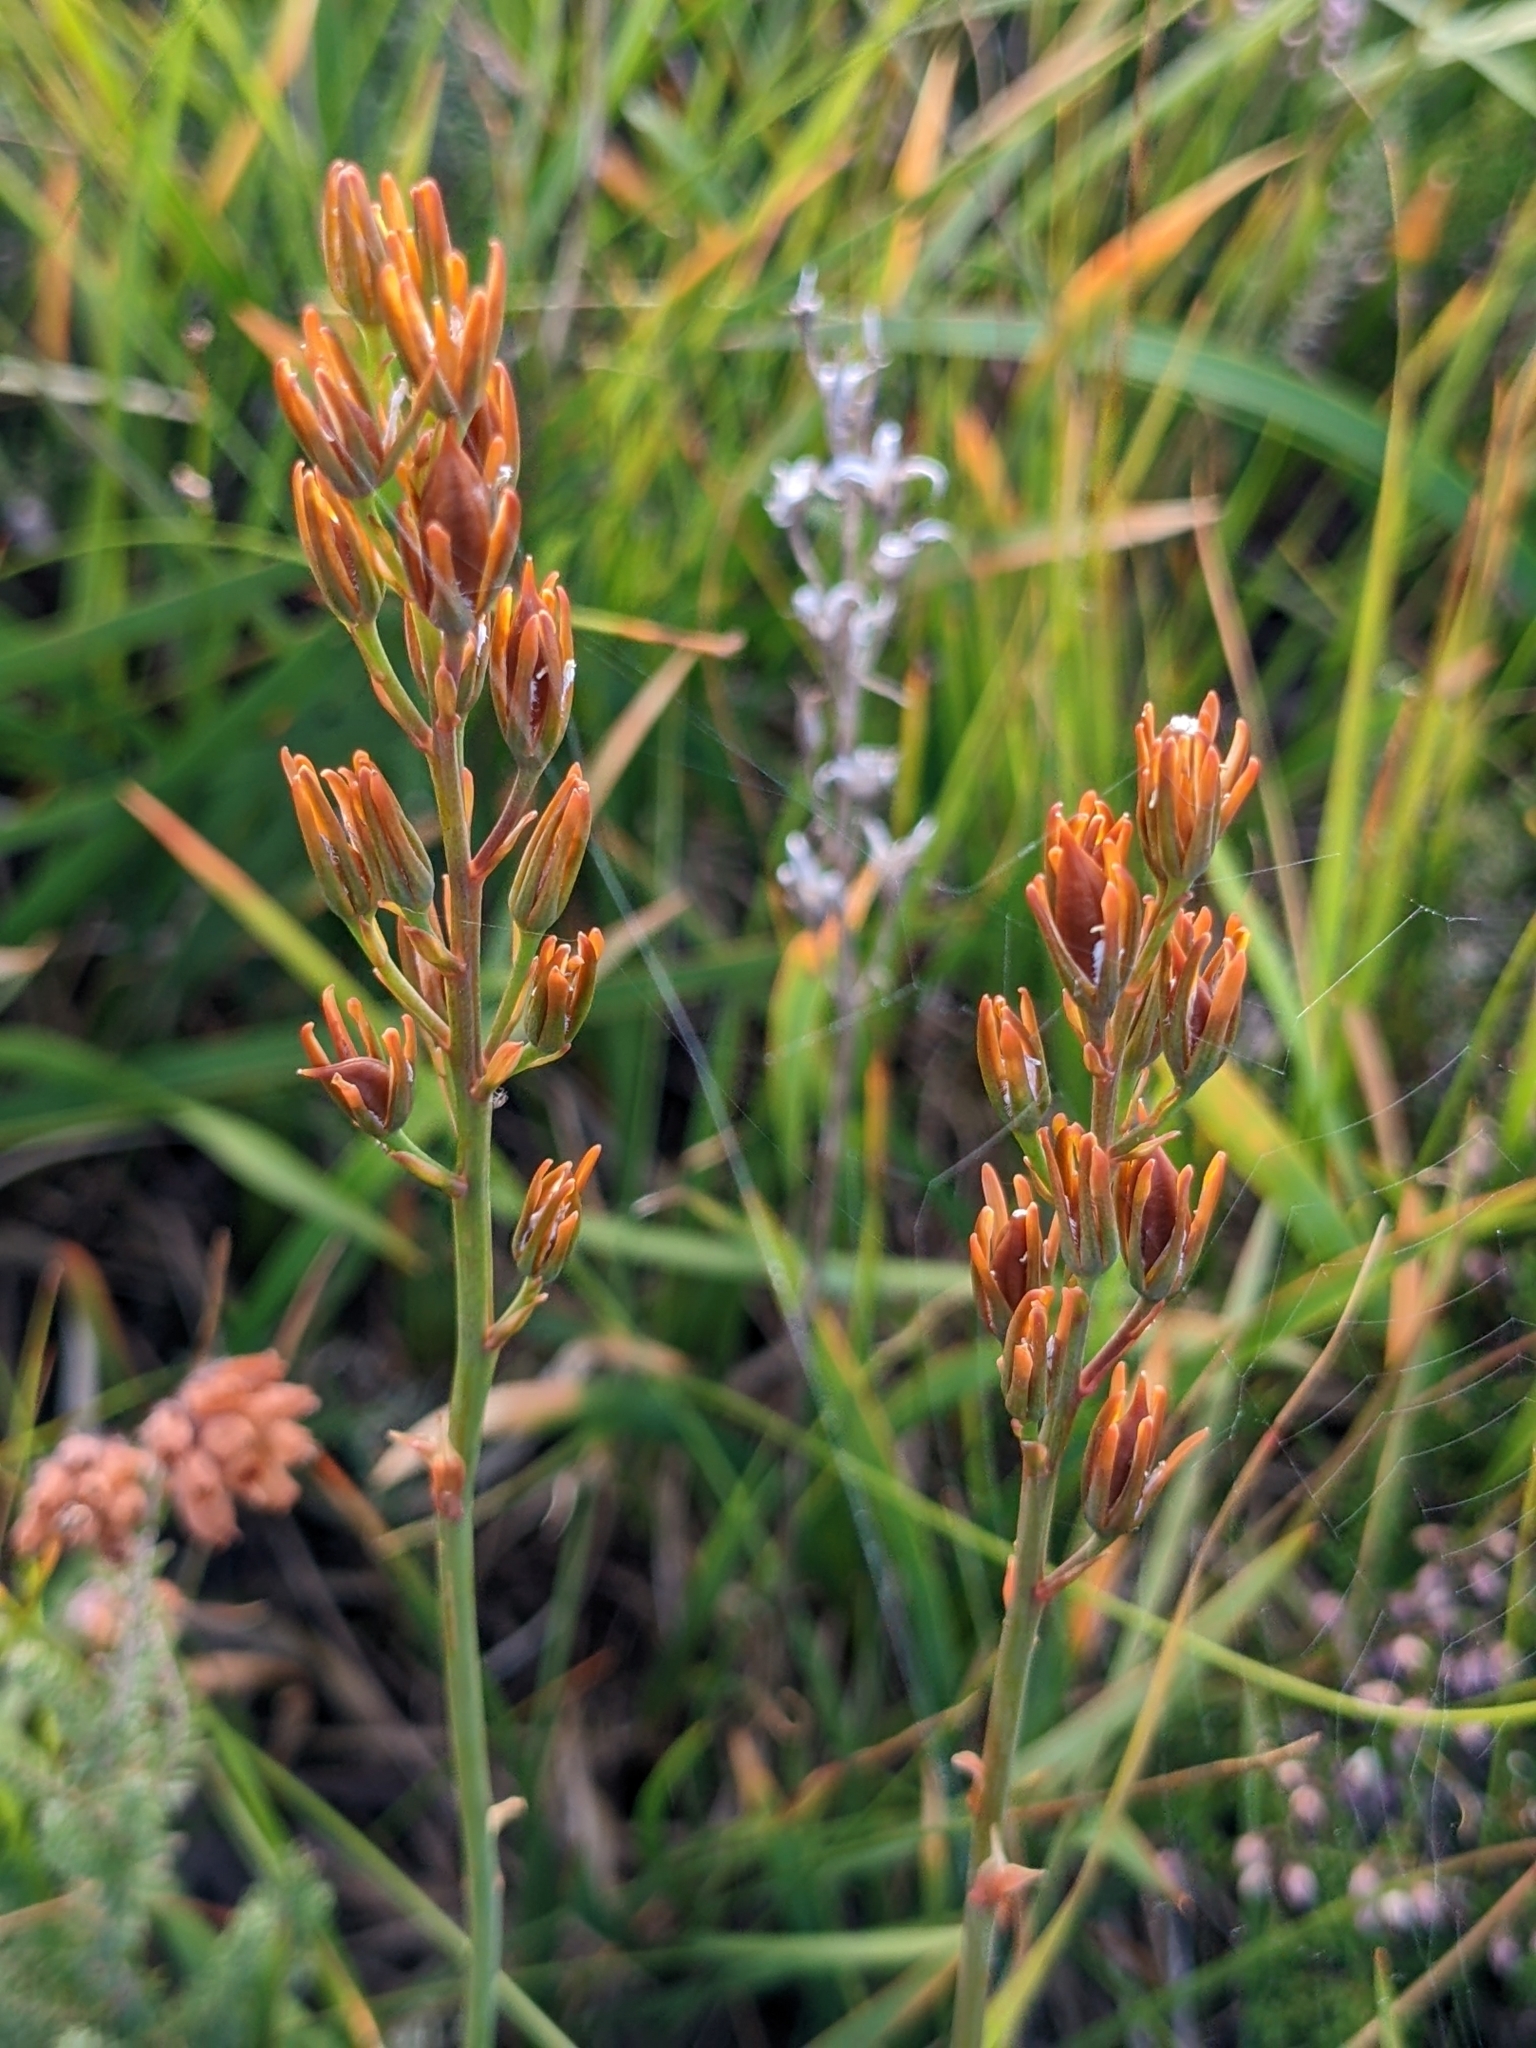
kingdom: Plantae
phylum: Tracheophyta
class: Liliopsida
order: Dioscoreales
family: Nartheciaceae
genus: Narthecium
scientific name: Narthecium ossifragum
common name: Bog asphodel
